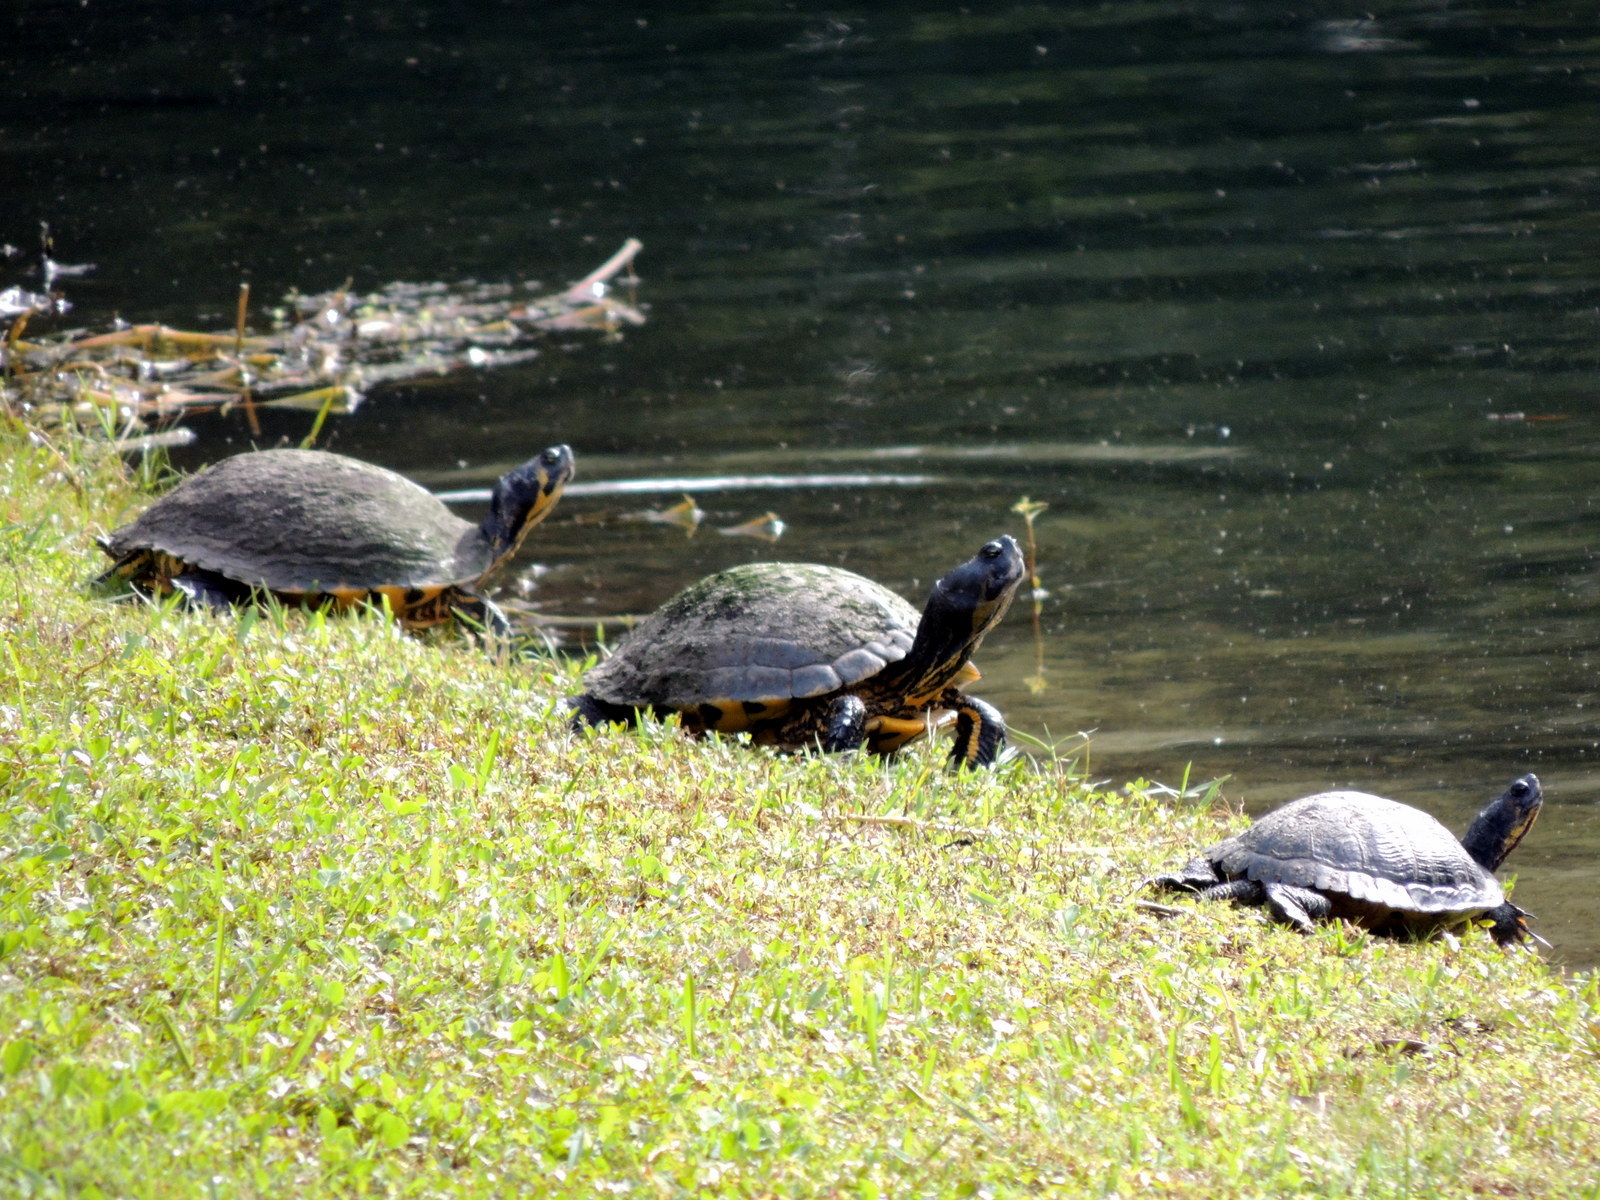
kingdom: Animalia
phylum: Chordata
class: Testudines
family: Emydidae
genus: Trachemys
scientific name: Trachemys scripta
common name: Slider
